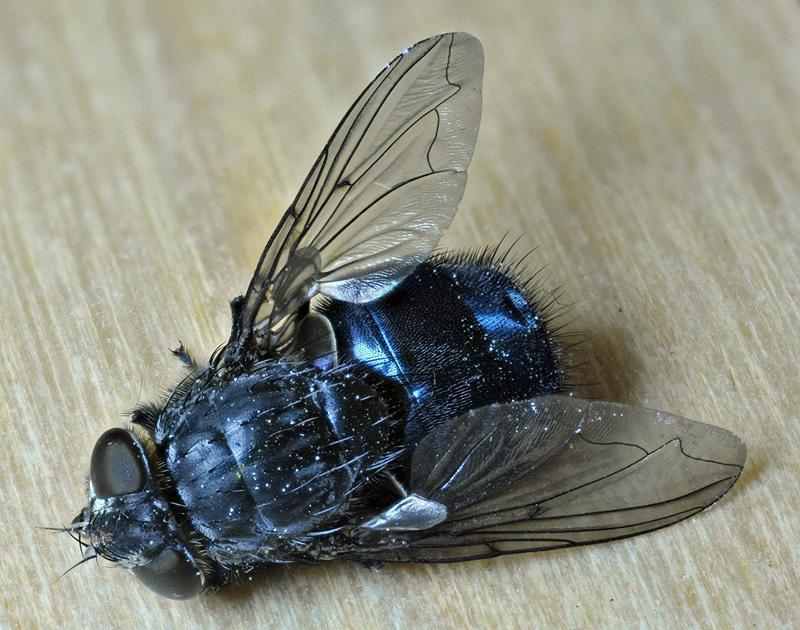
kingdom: Animalia
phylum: Arthropoda
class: Insecta
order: Diptera
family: Calliphoridae
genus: Calliphora
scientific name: Calliphora vomitoria
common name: Blue bottle fly
